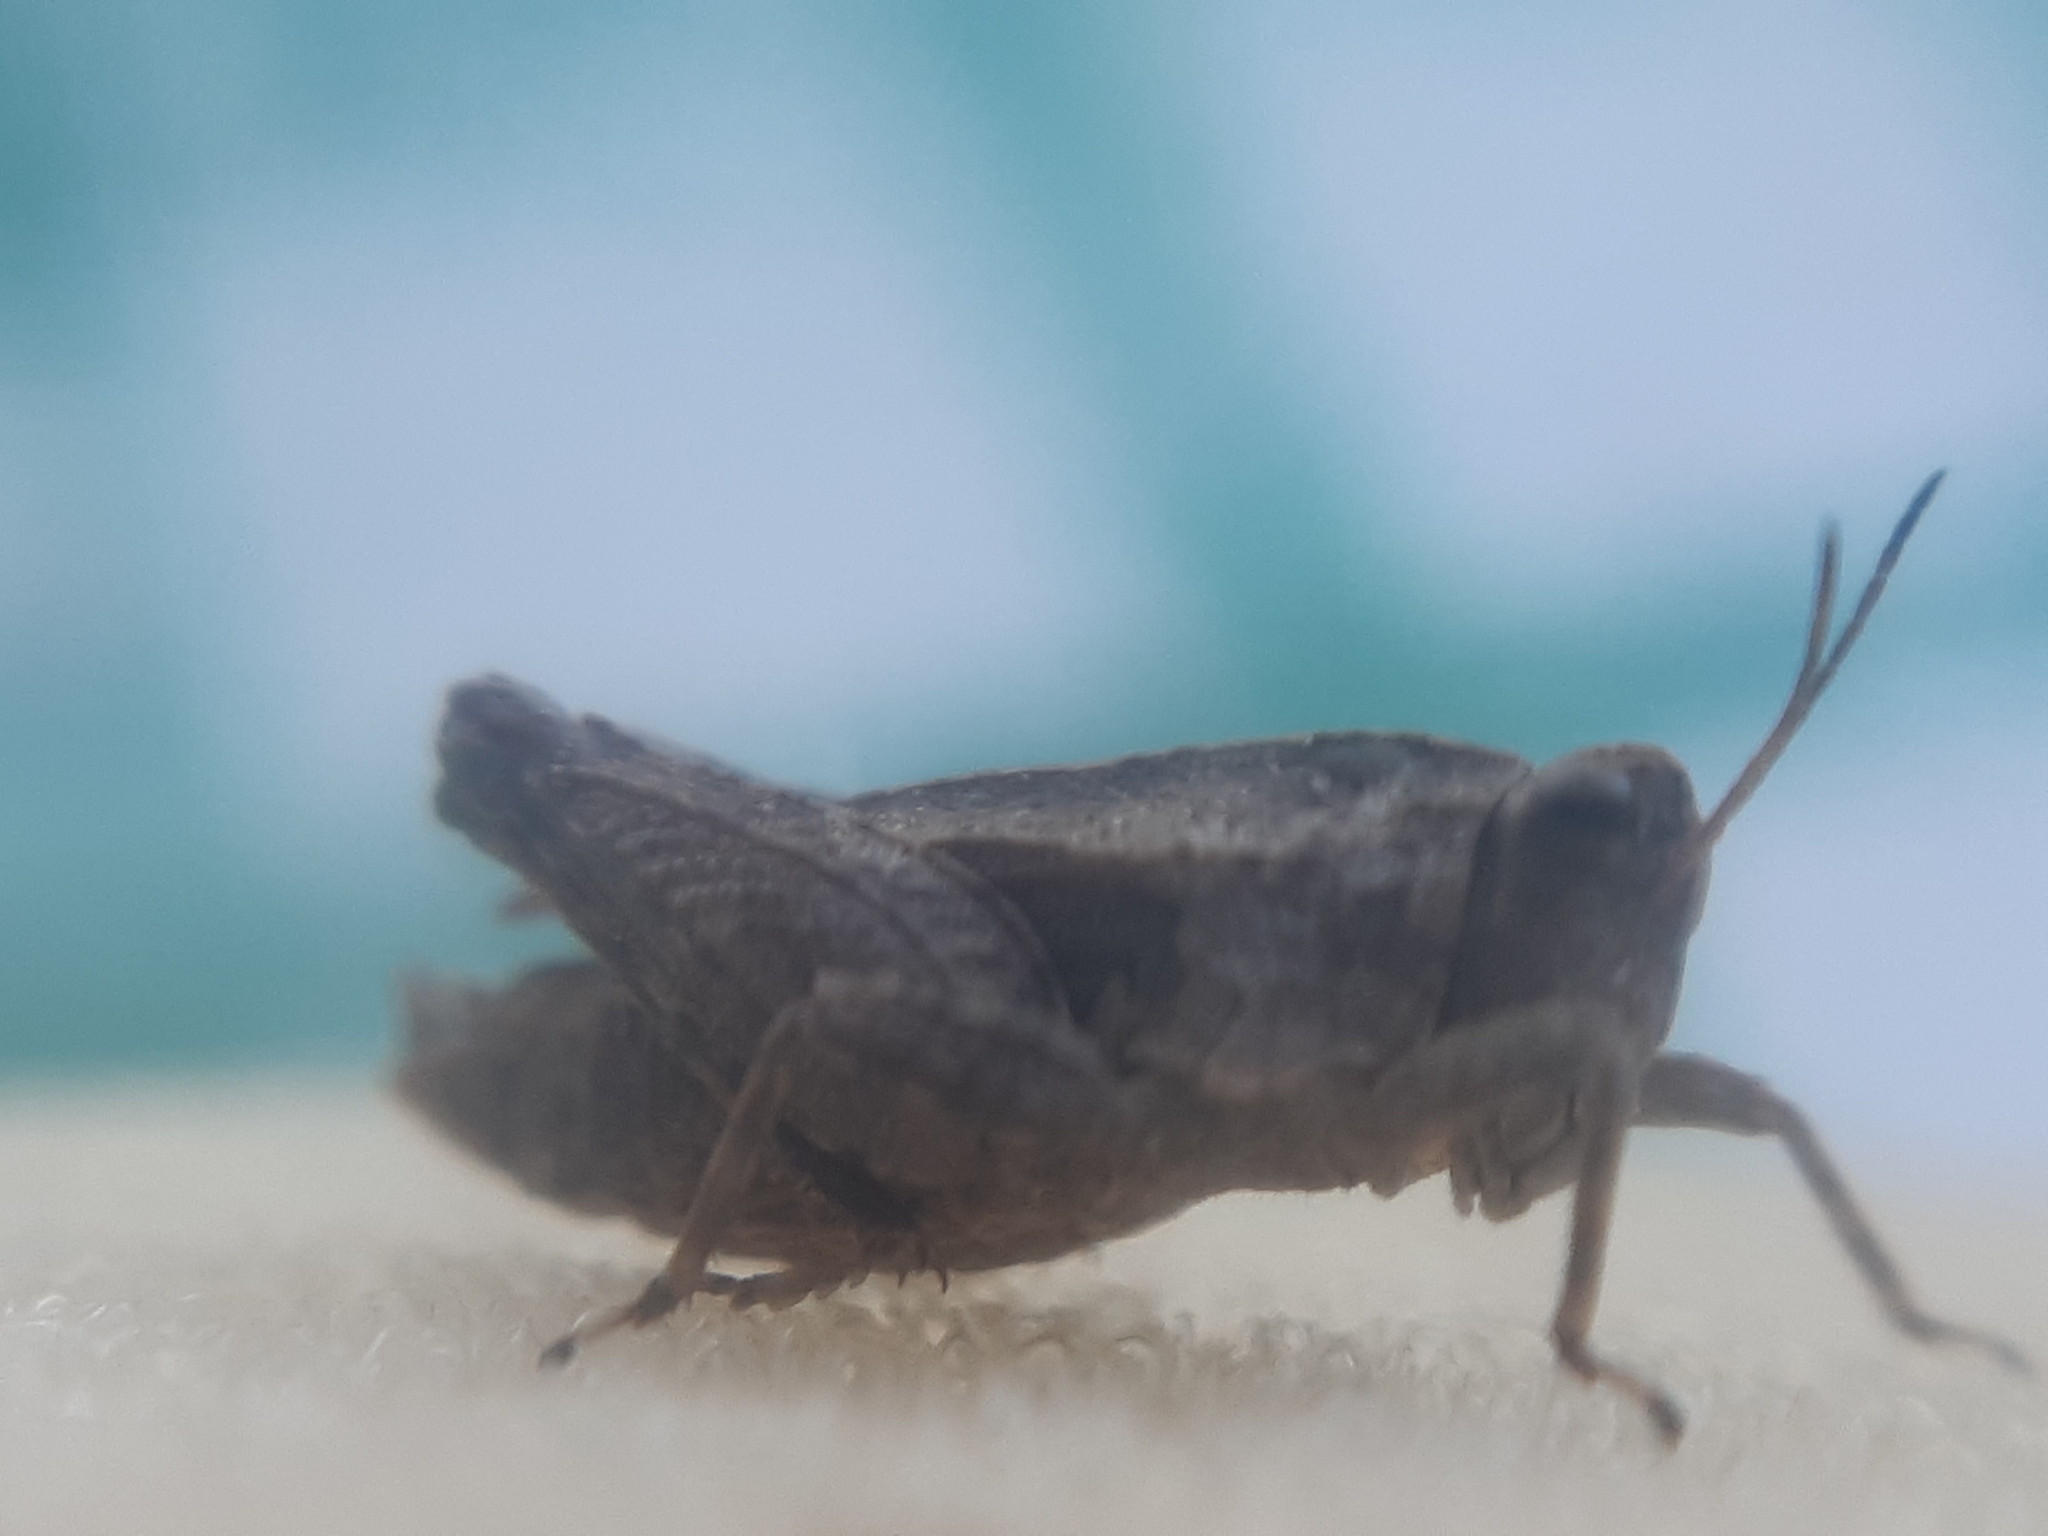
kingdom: Animalia
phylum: Arthropoda
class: Insecta
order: Orthoptera
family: Tetrigidae
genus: Tetrix
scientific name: Tetrix tenuicornis
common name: Long-horned groundhopper
